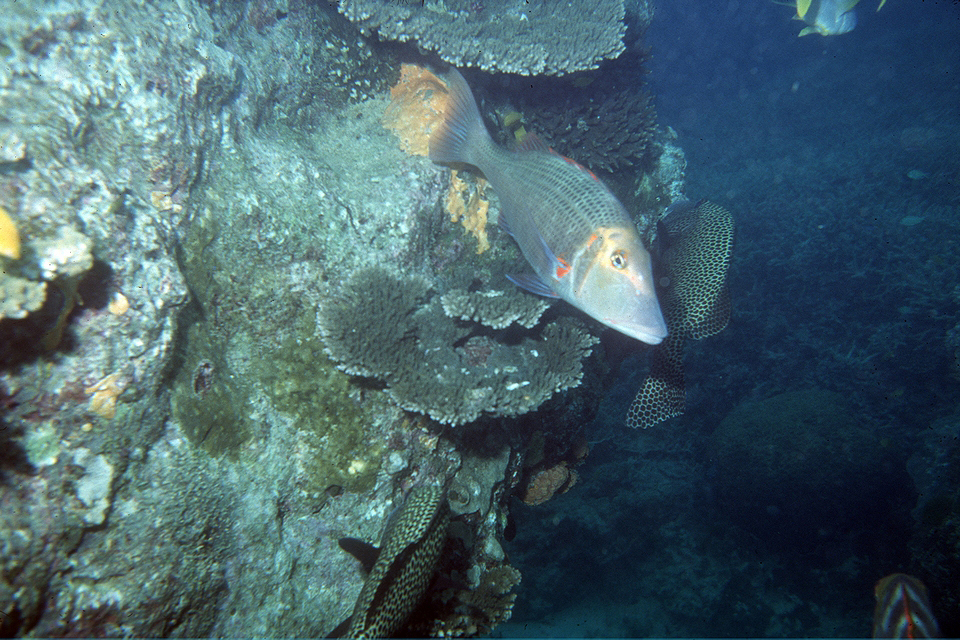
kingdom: Animalia
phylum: Chordata
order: Perciformes
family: Lethrinidae
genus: Lethrinus
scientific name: Lethrinus miniatus
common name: Trumpet emperor
